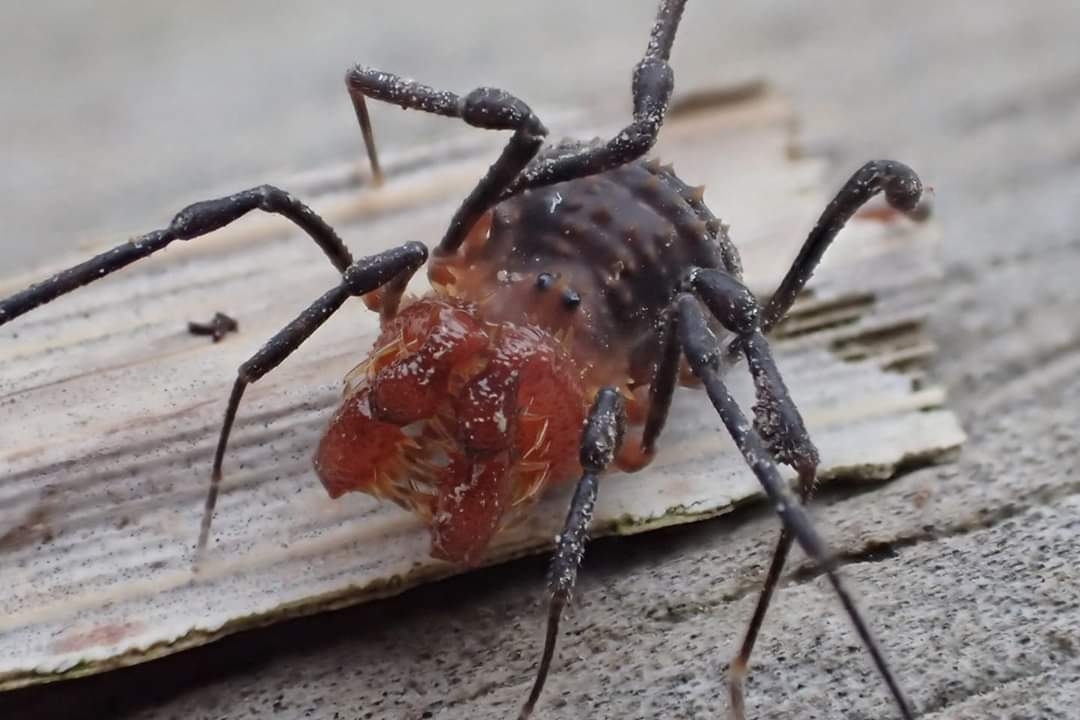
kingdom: Animalia
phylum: Arthropoda
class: Arachnida
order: Opiliones
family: Triaenonychidae
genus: Sorensenella
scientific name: Sorensenella prehensor
